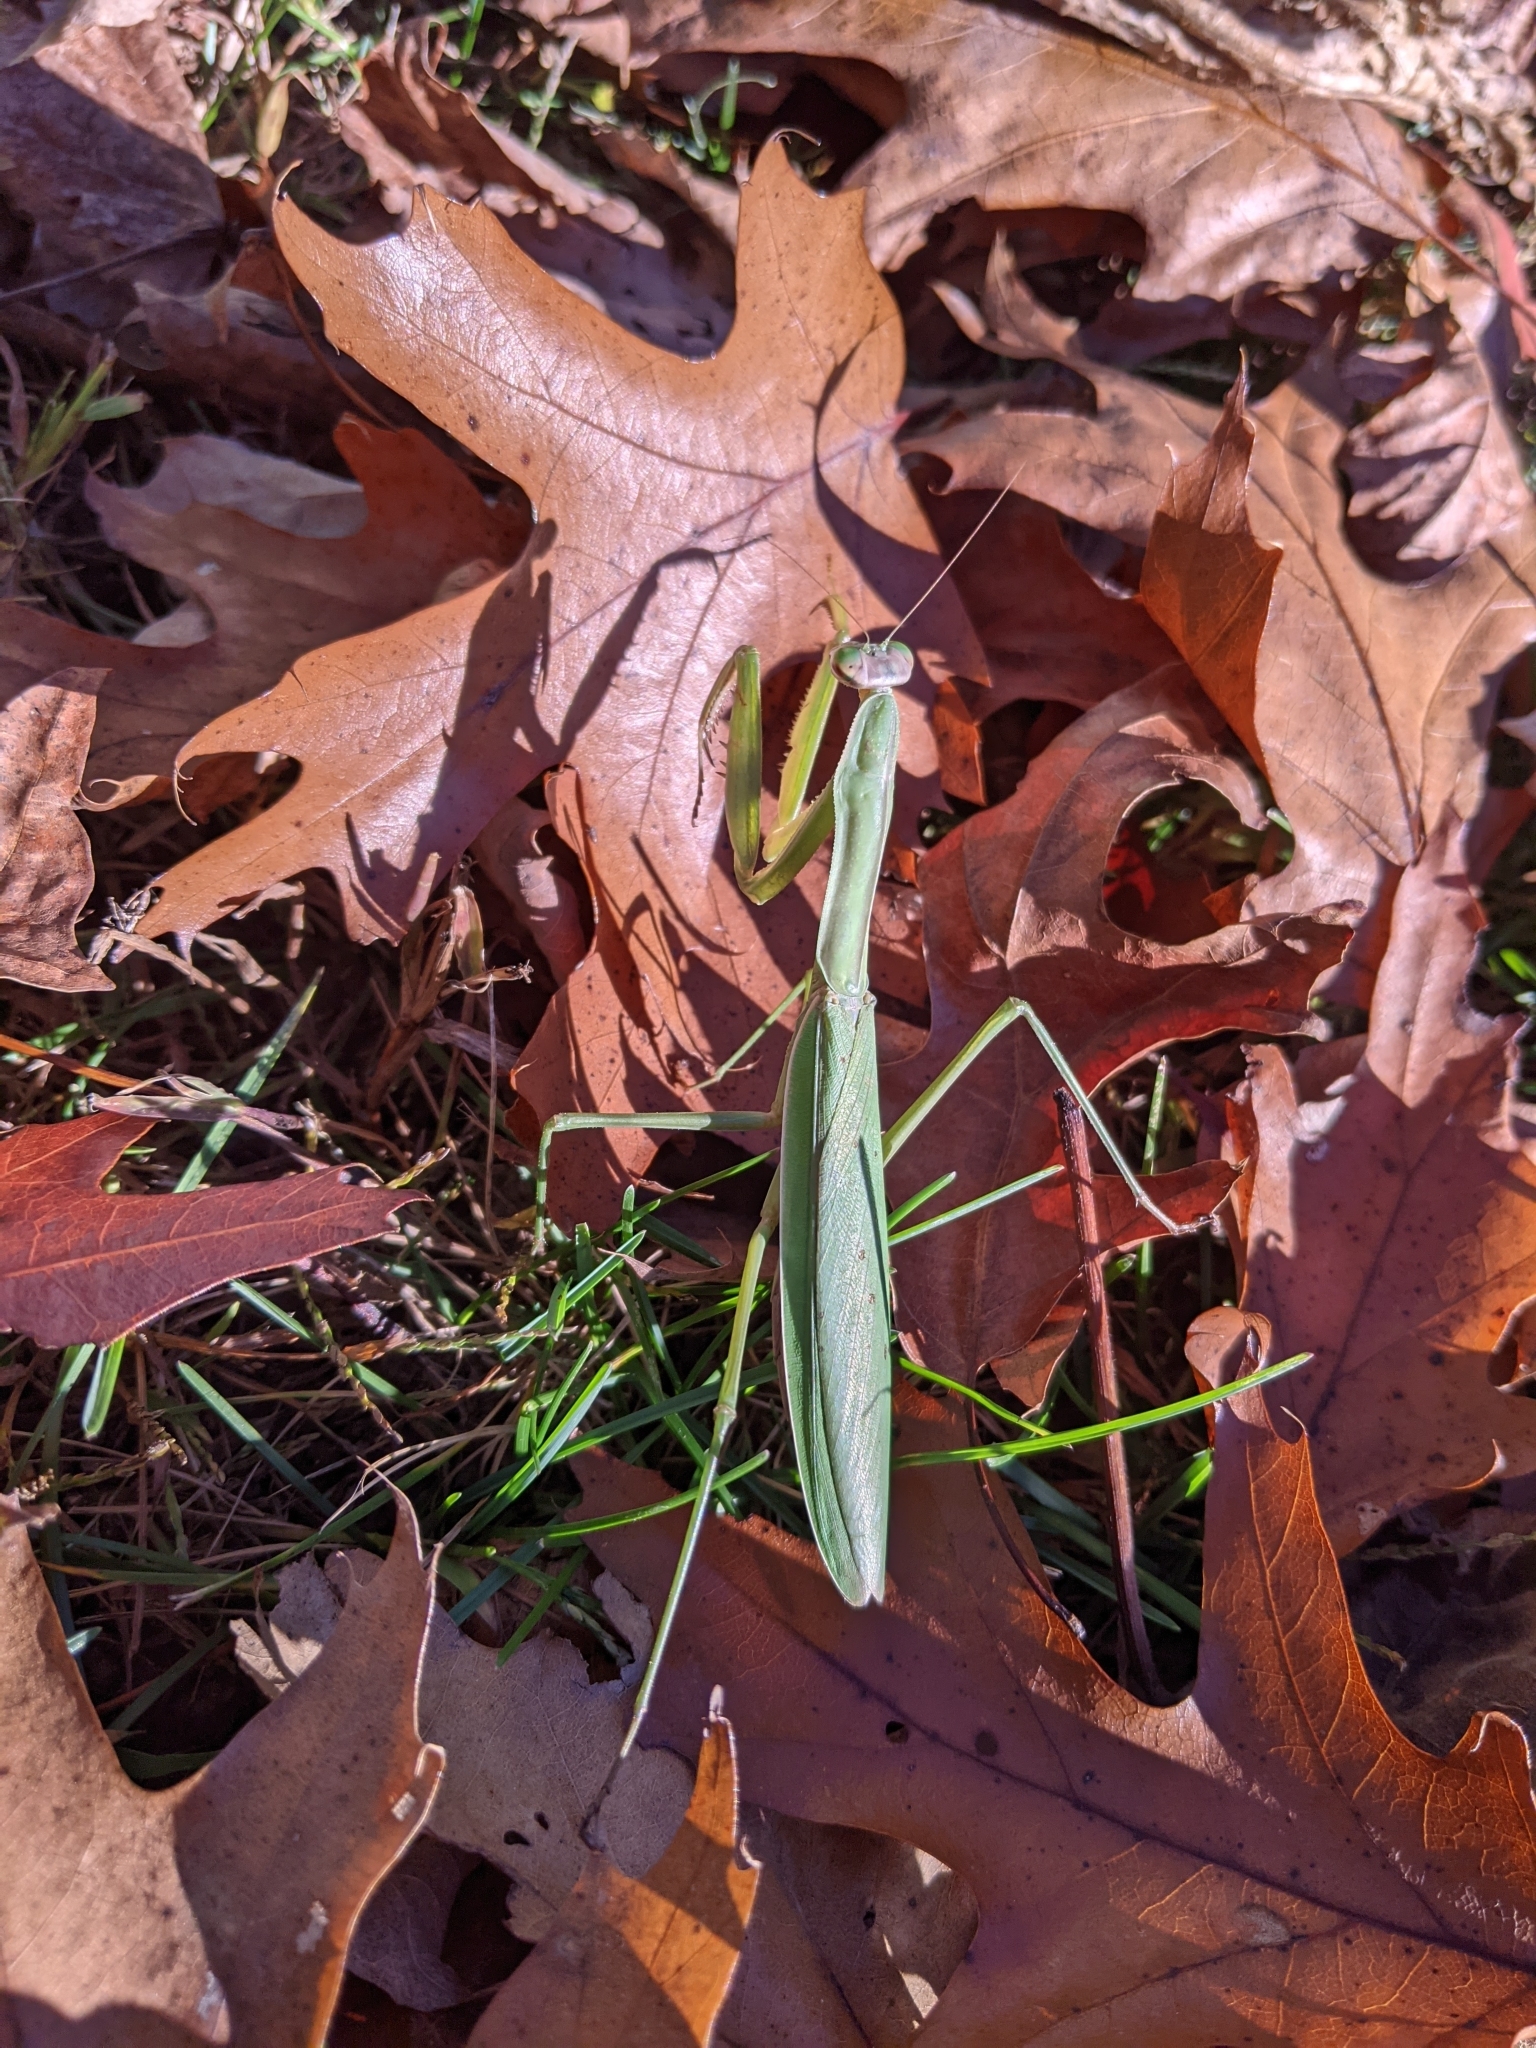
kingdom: Animalia
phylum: Arthropoda
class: Insecta
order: Mantodea
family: Mantidae
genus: Tenodera
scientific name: Tenodera sinensis
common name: Chinese mantis
